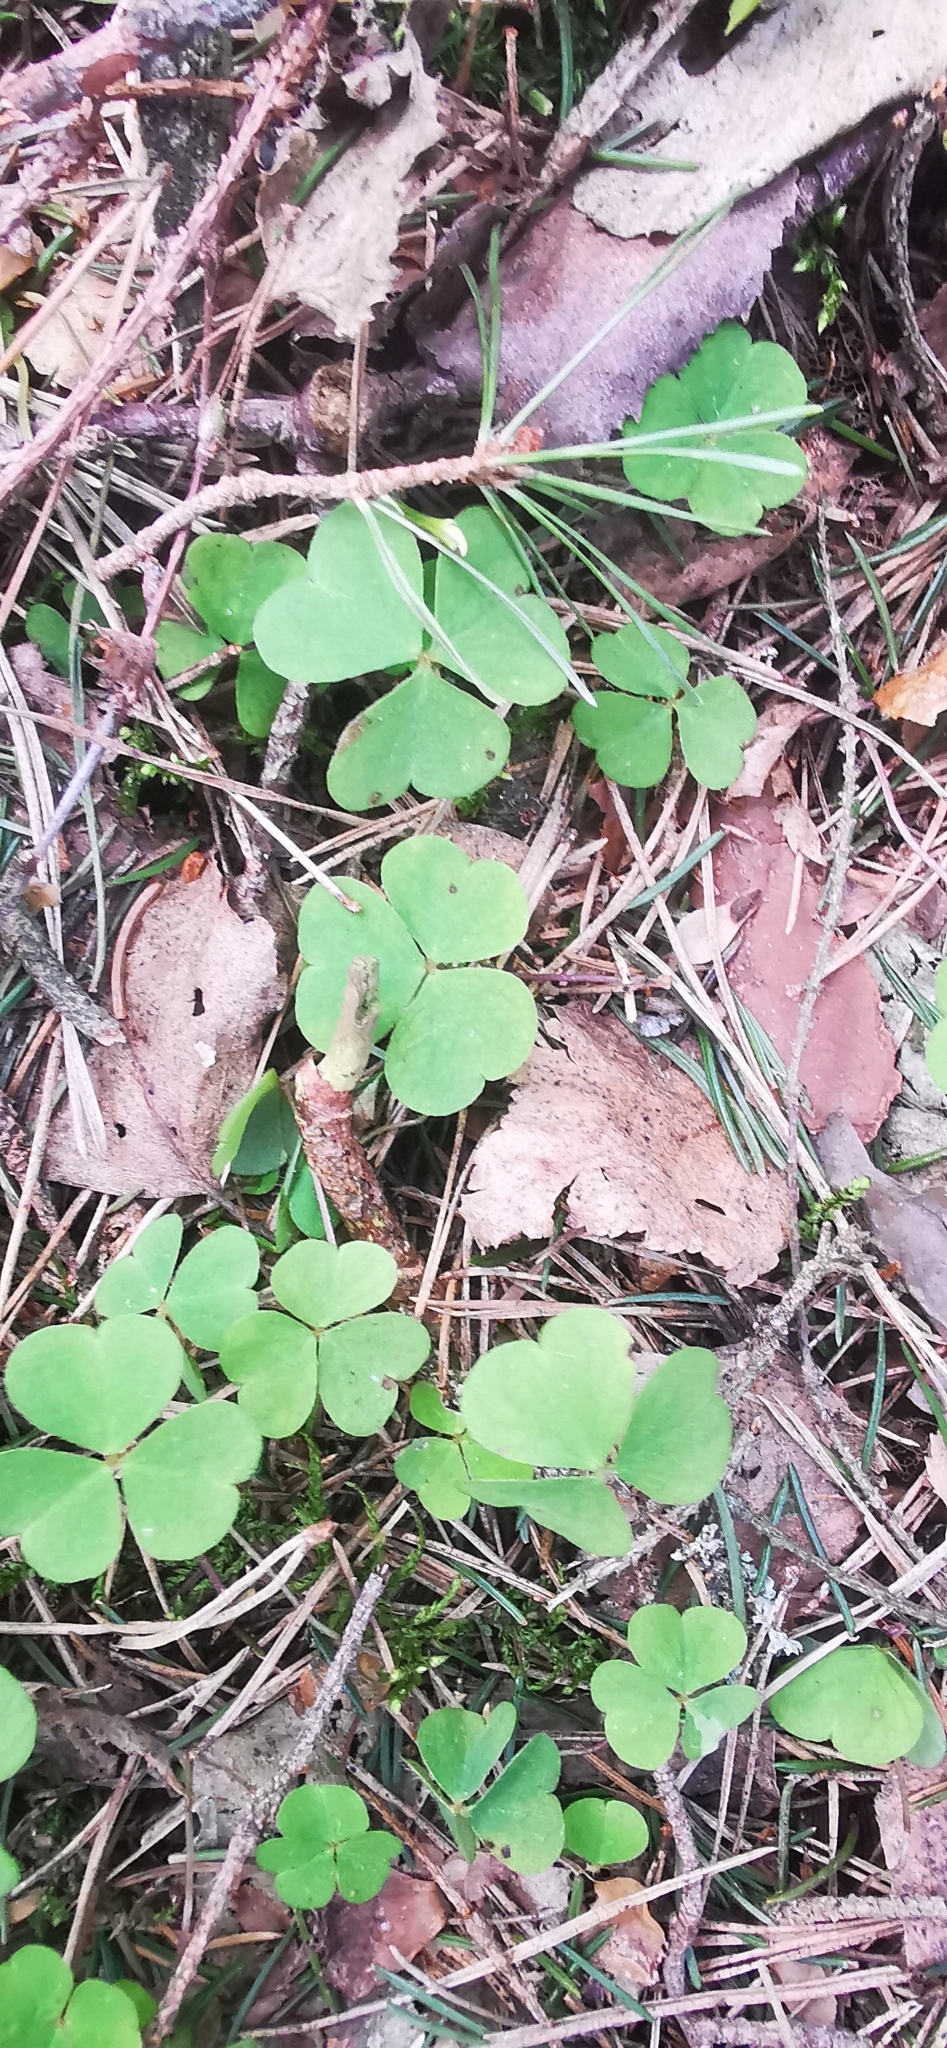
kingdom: Plantae
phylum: Tracheophyta
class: Magnoliopsida
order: Oxalidales
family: Oxalidaceae
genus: Oxalis
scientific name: Oxalis acetosella
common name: Wood-sorrel
